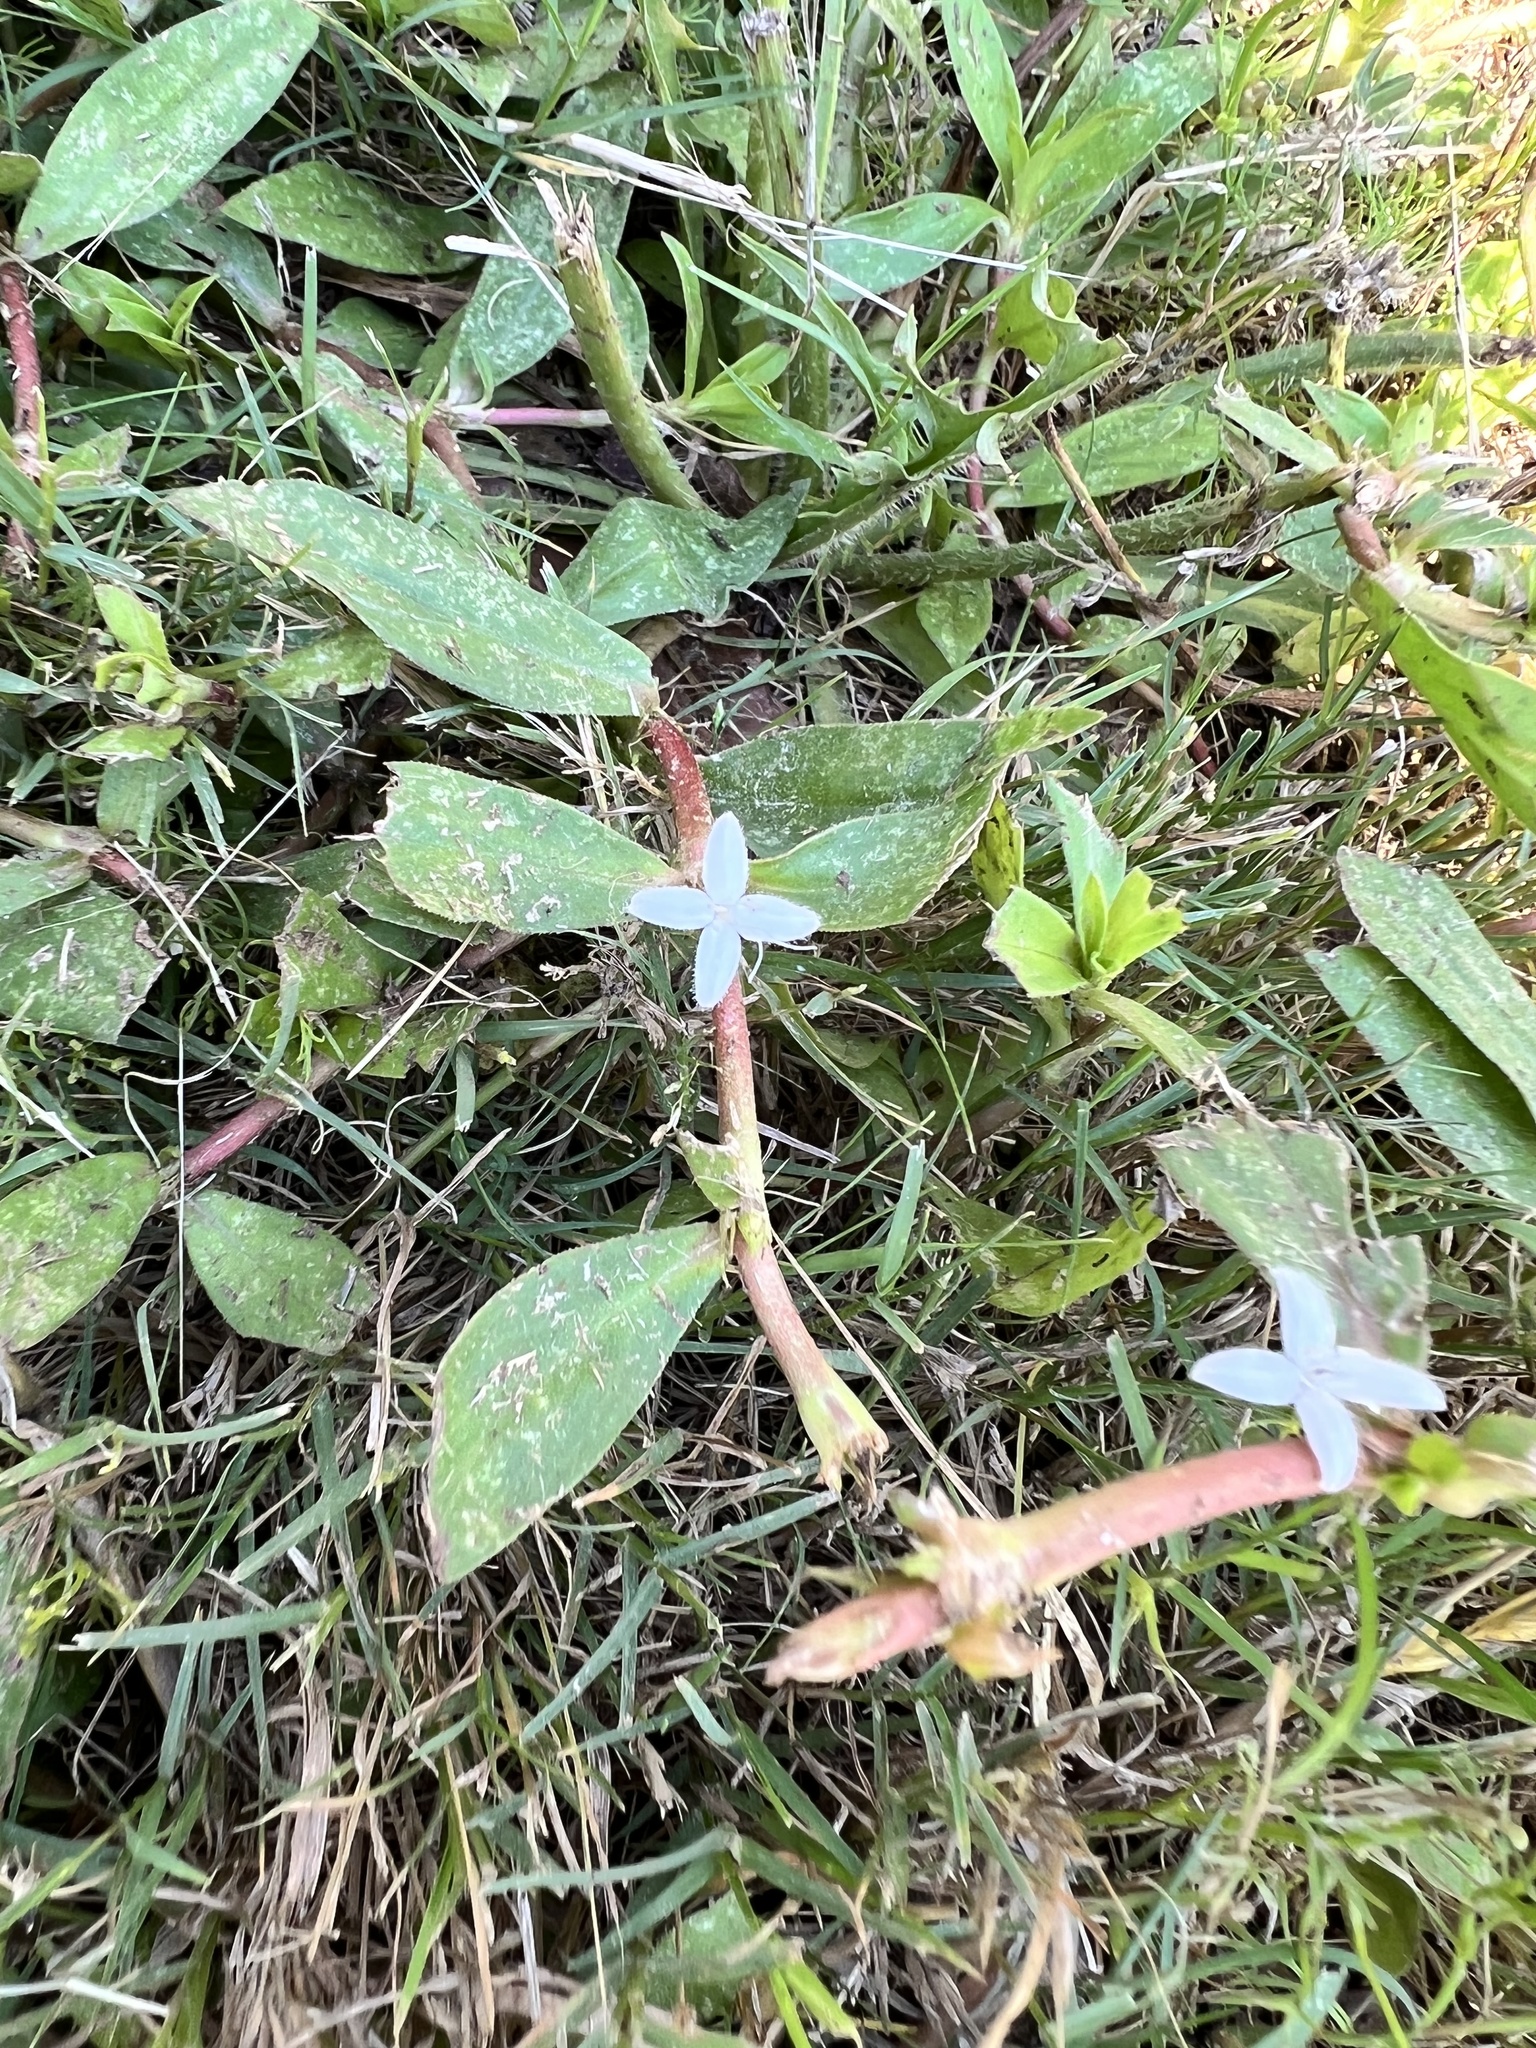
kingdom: Plantae
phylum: Tracheophyta
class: Magnoliopsida
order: Gentianales
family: Rubiaceae
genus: Diodia
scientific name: Diodia virginiana
